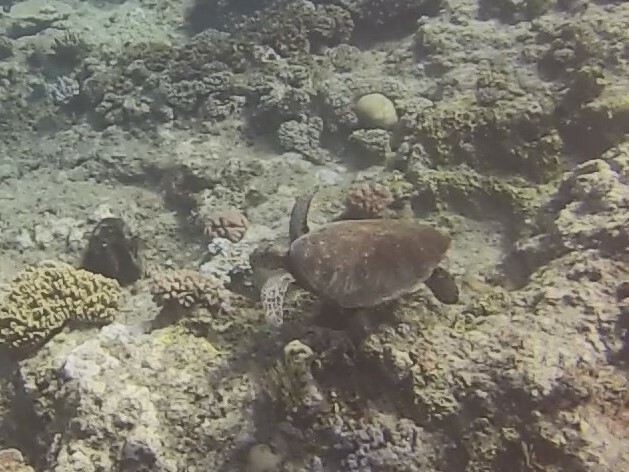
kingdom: Animalia
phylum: Chordata
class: Testudines
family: Cheloniidae
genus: Chelonia
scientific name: Chelonia mydas
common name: Green turtle
